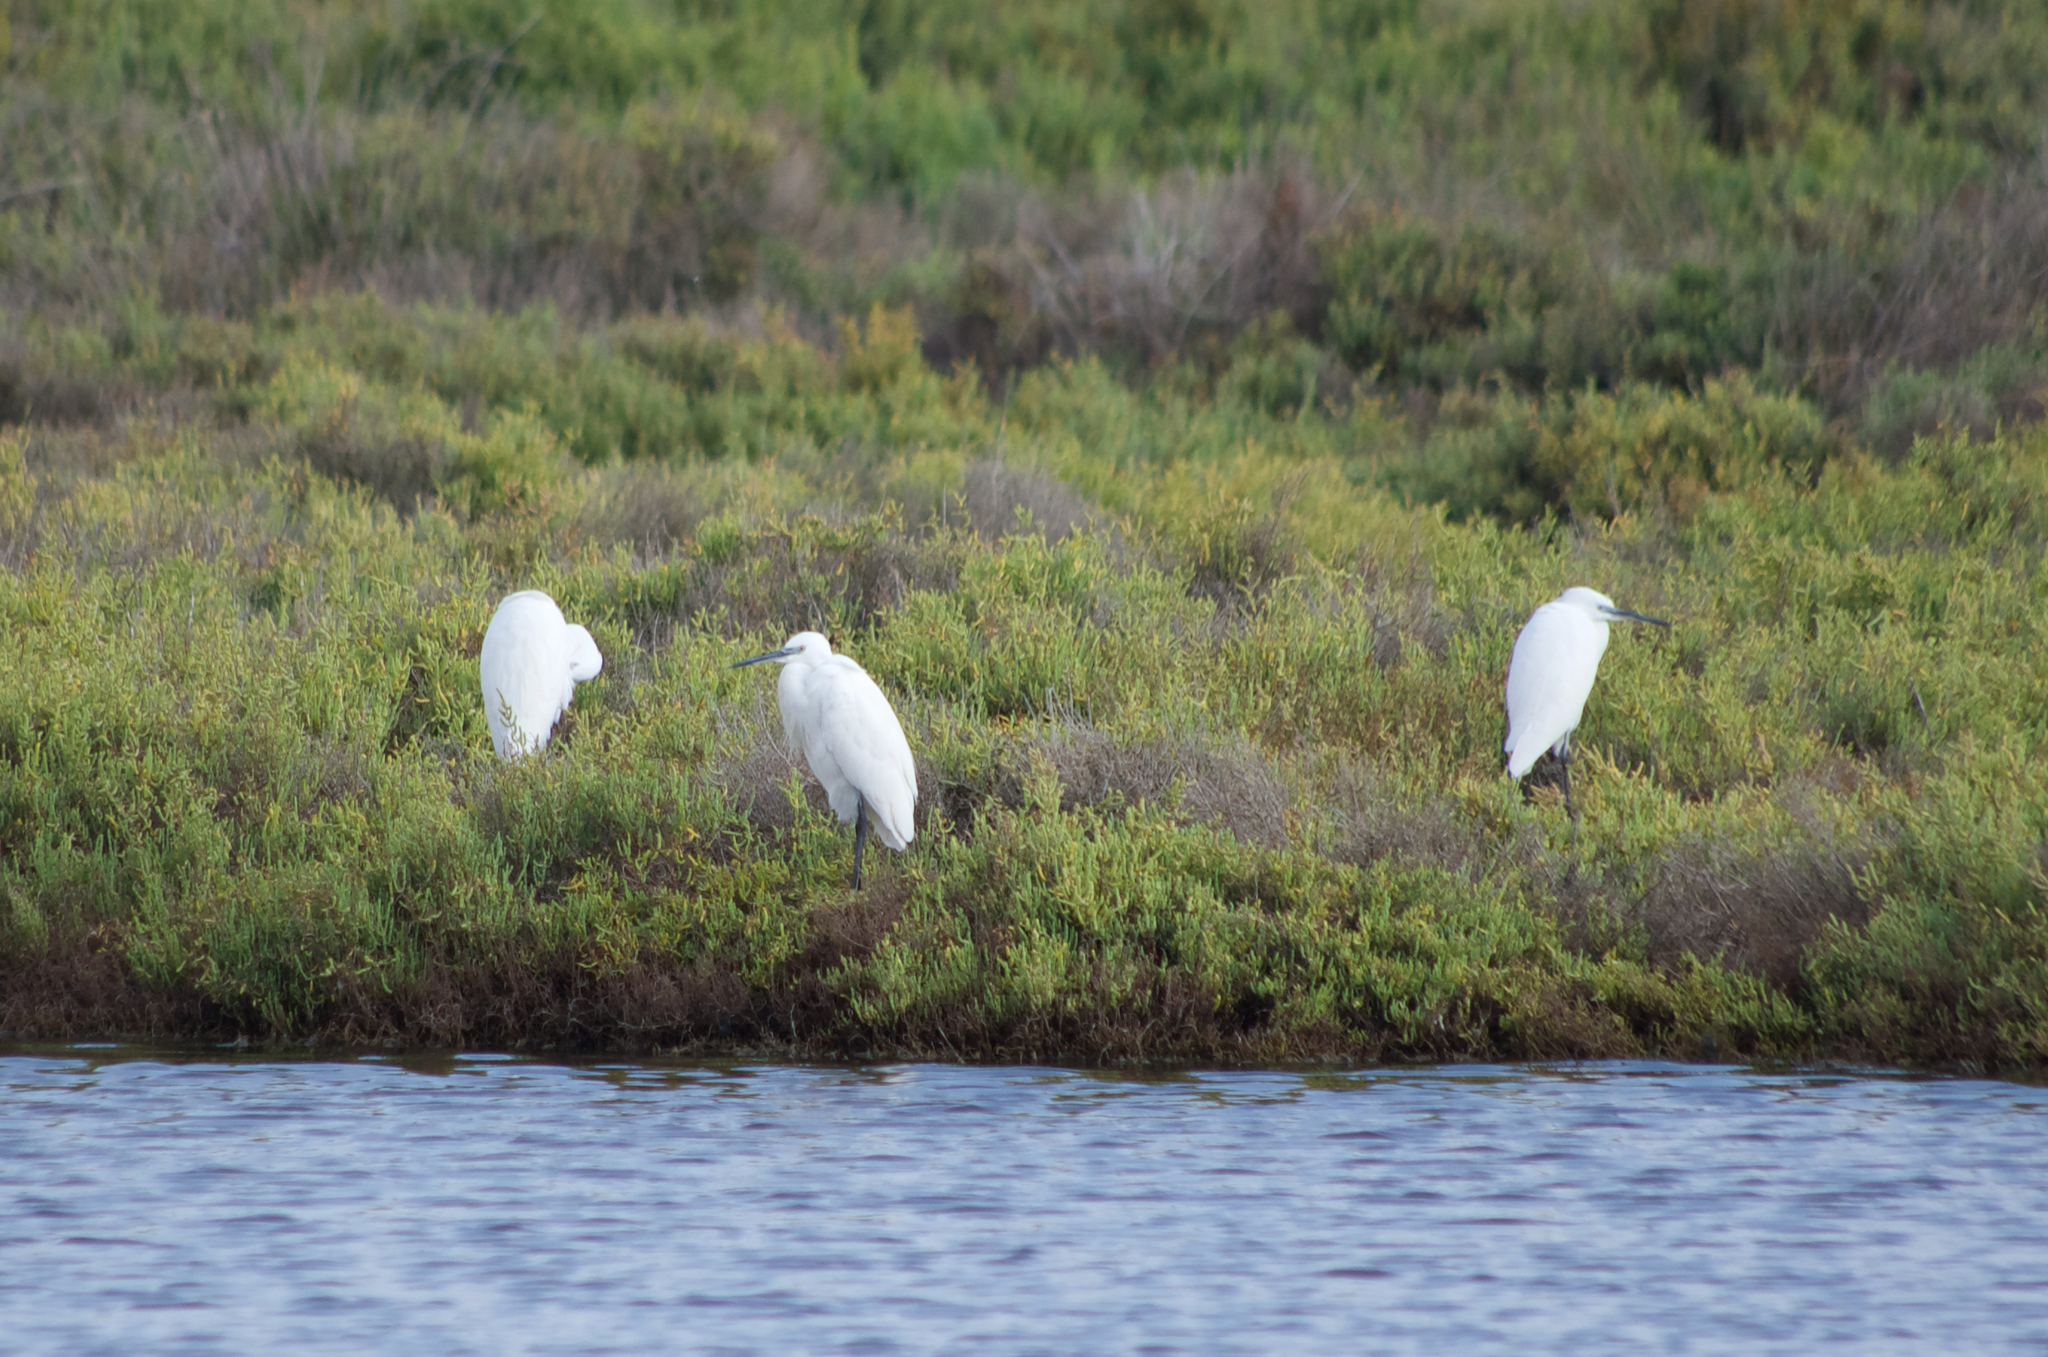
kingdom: Animalia
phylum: Chordata
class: Aves
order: Pelecaniformes
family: Ardeidae
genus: Egretta
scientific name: Egretta garzetta
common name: Little egret
